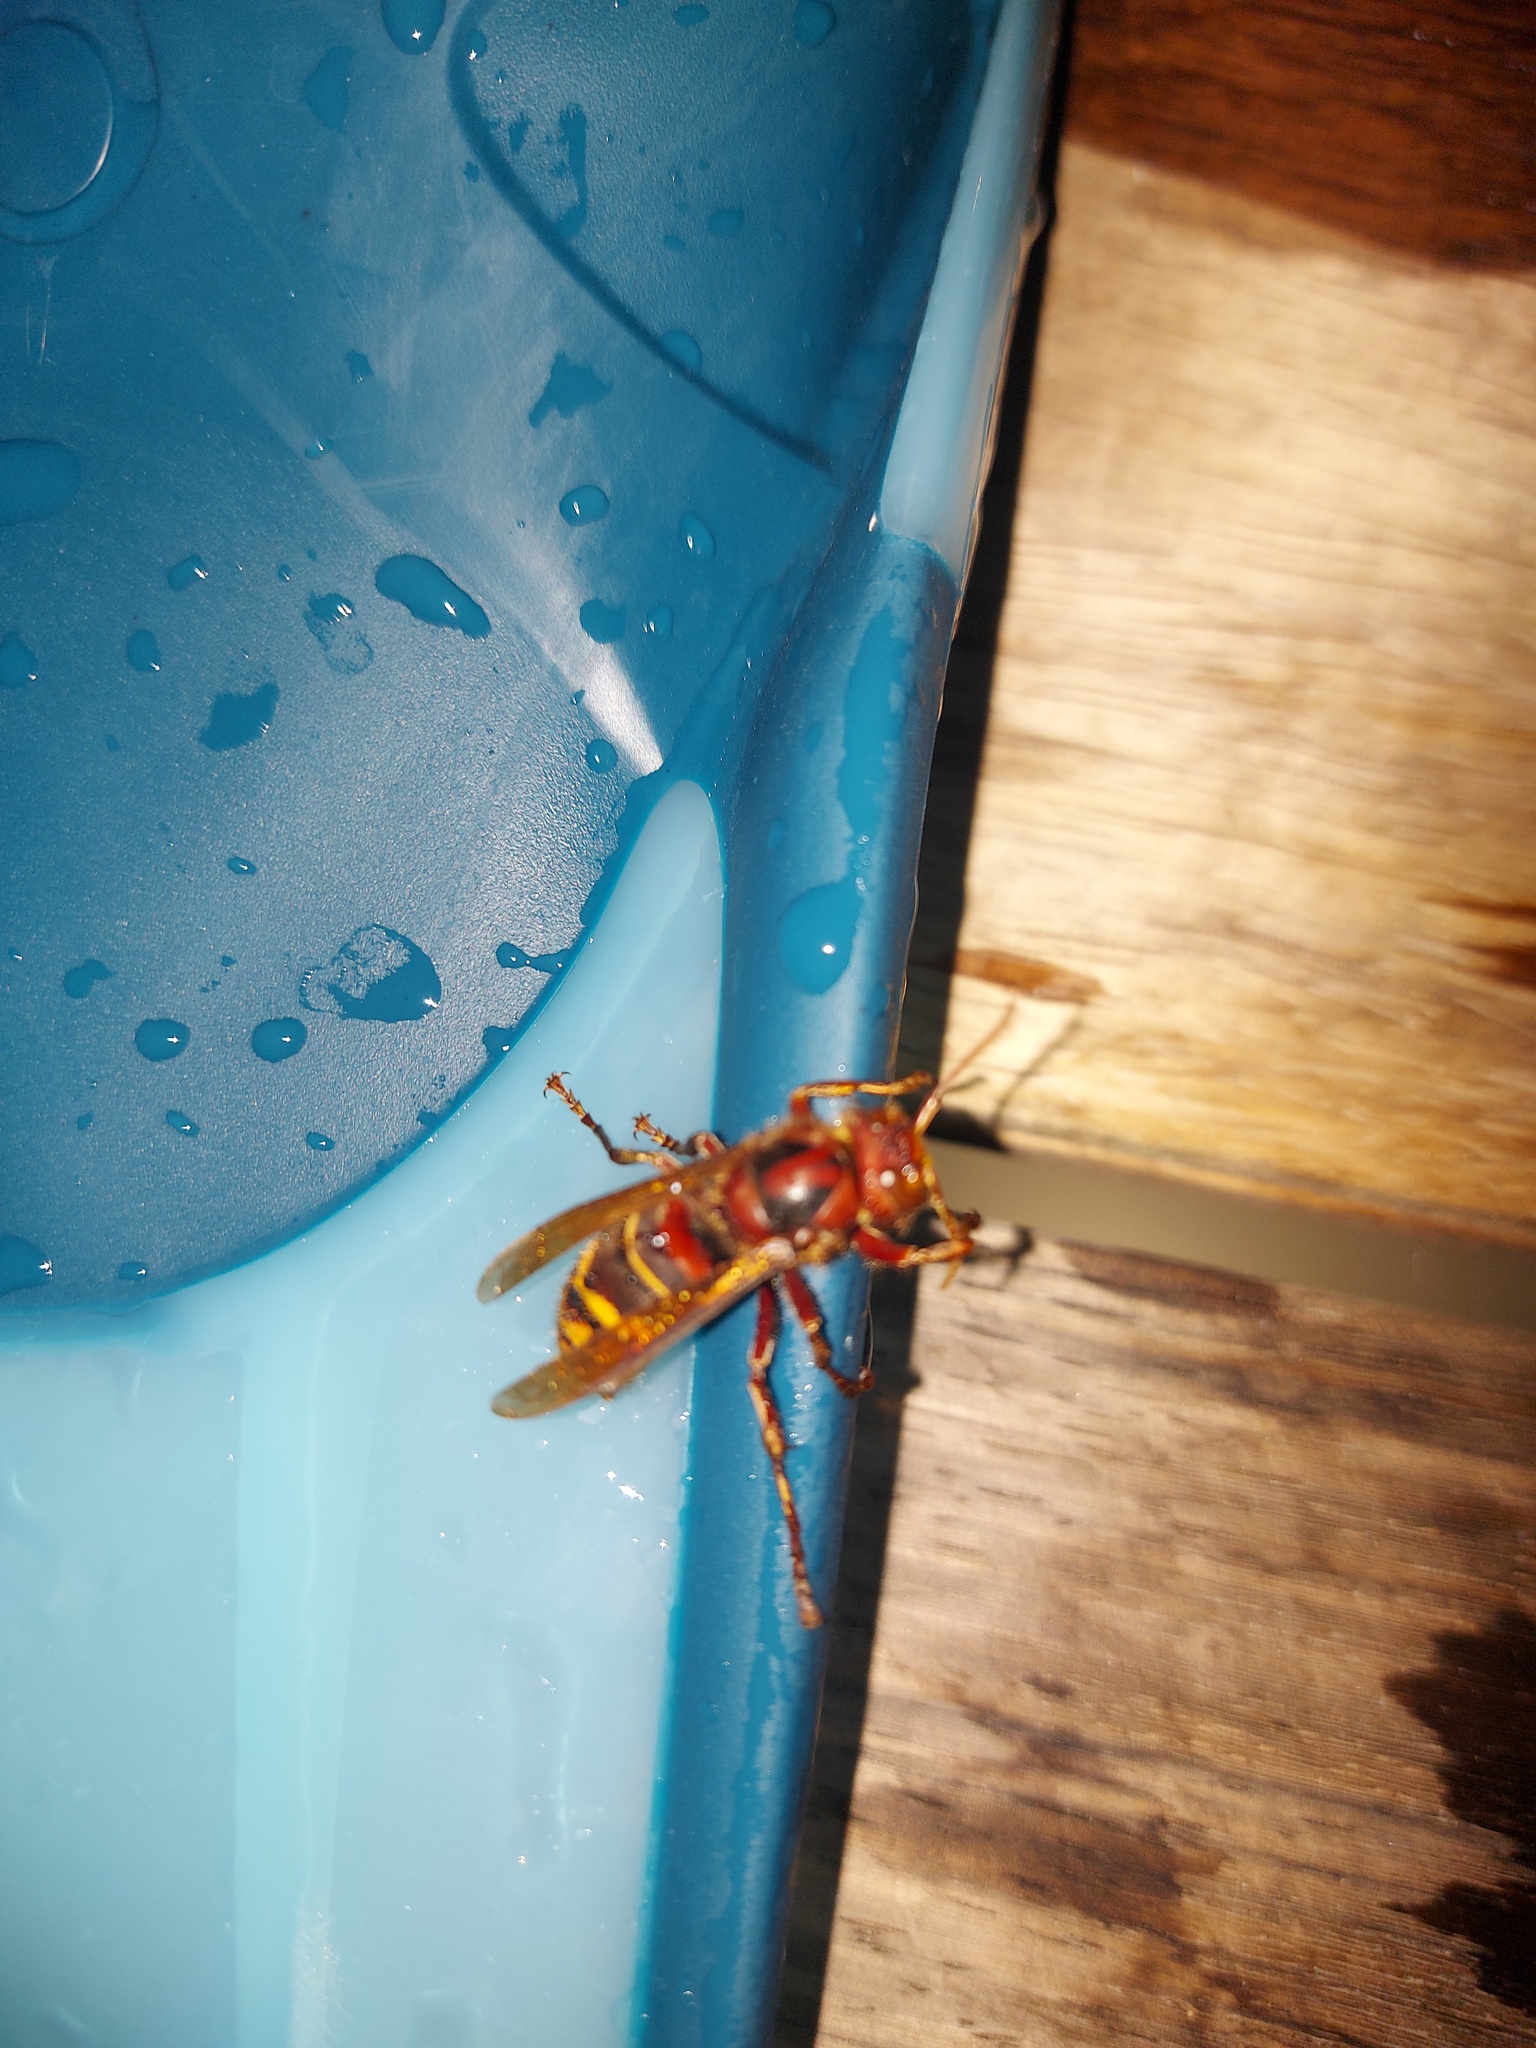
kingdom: Animalia
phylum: Arthropoda
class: Insecta
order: Hymenoptera
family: Vespidae
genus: Vespa
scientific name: Vespa crabro
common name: Hornet
